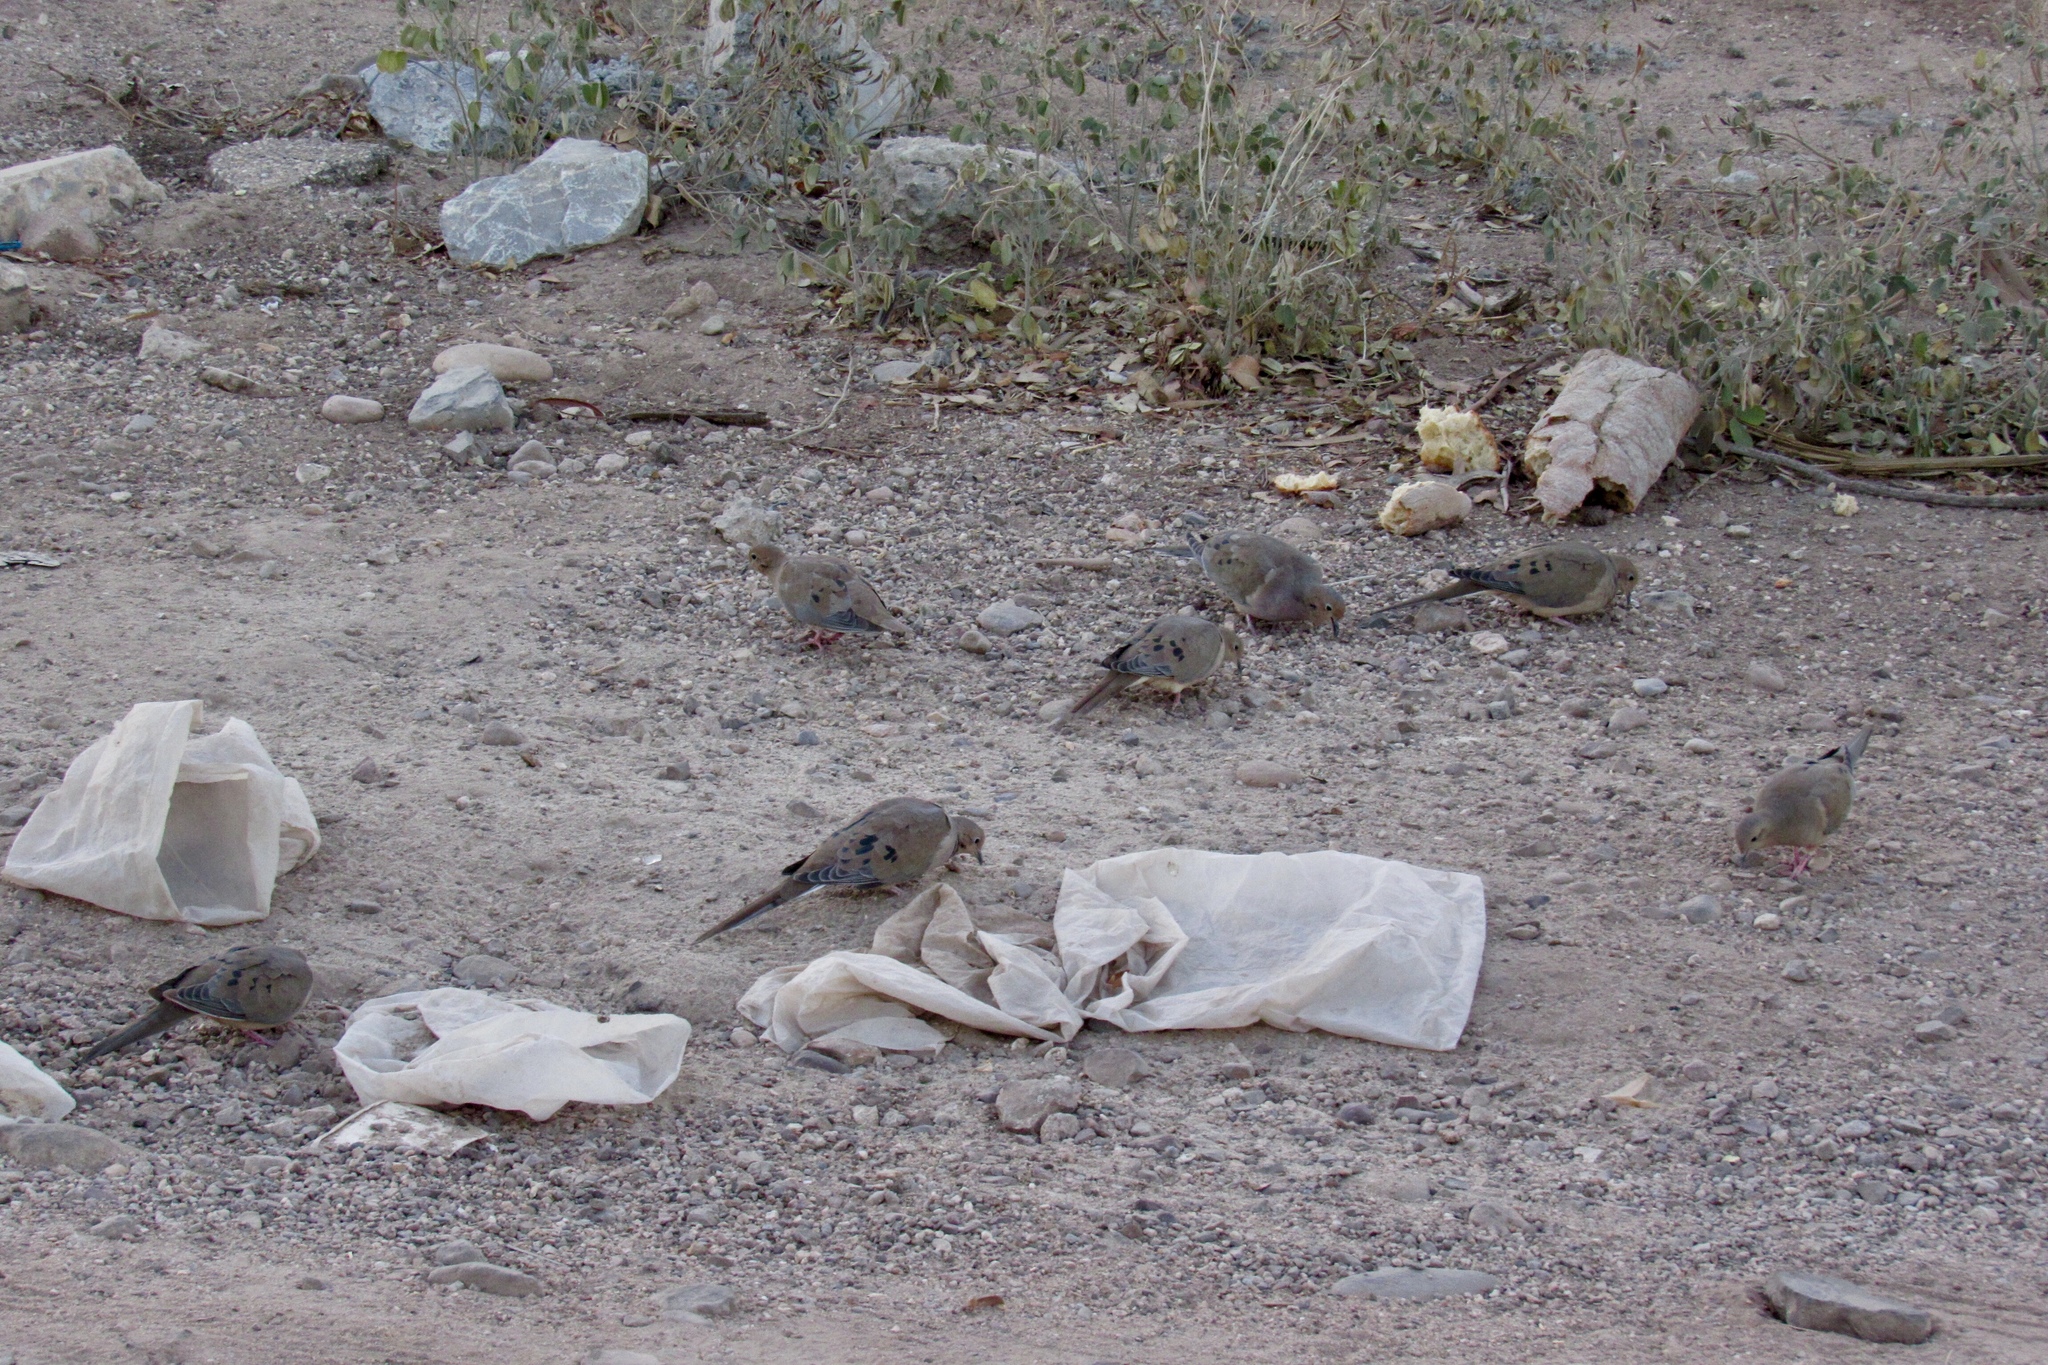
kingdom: Animalia
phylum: Chordata
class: Aves
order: Columbiformes
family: Columbidae
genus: Zenaida
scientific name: Zenaida macroura
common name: Mourning dove
